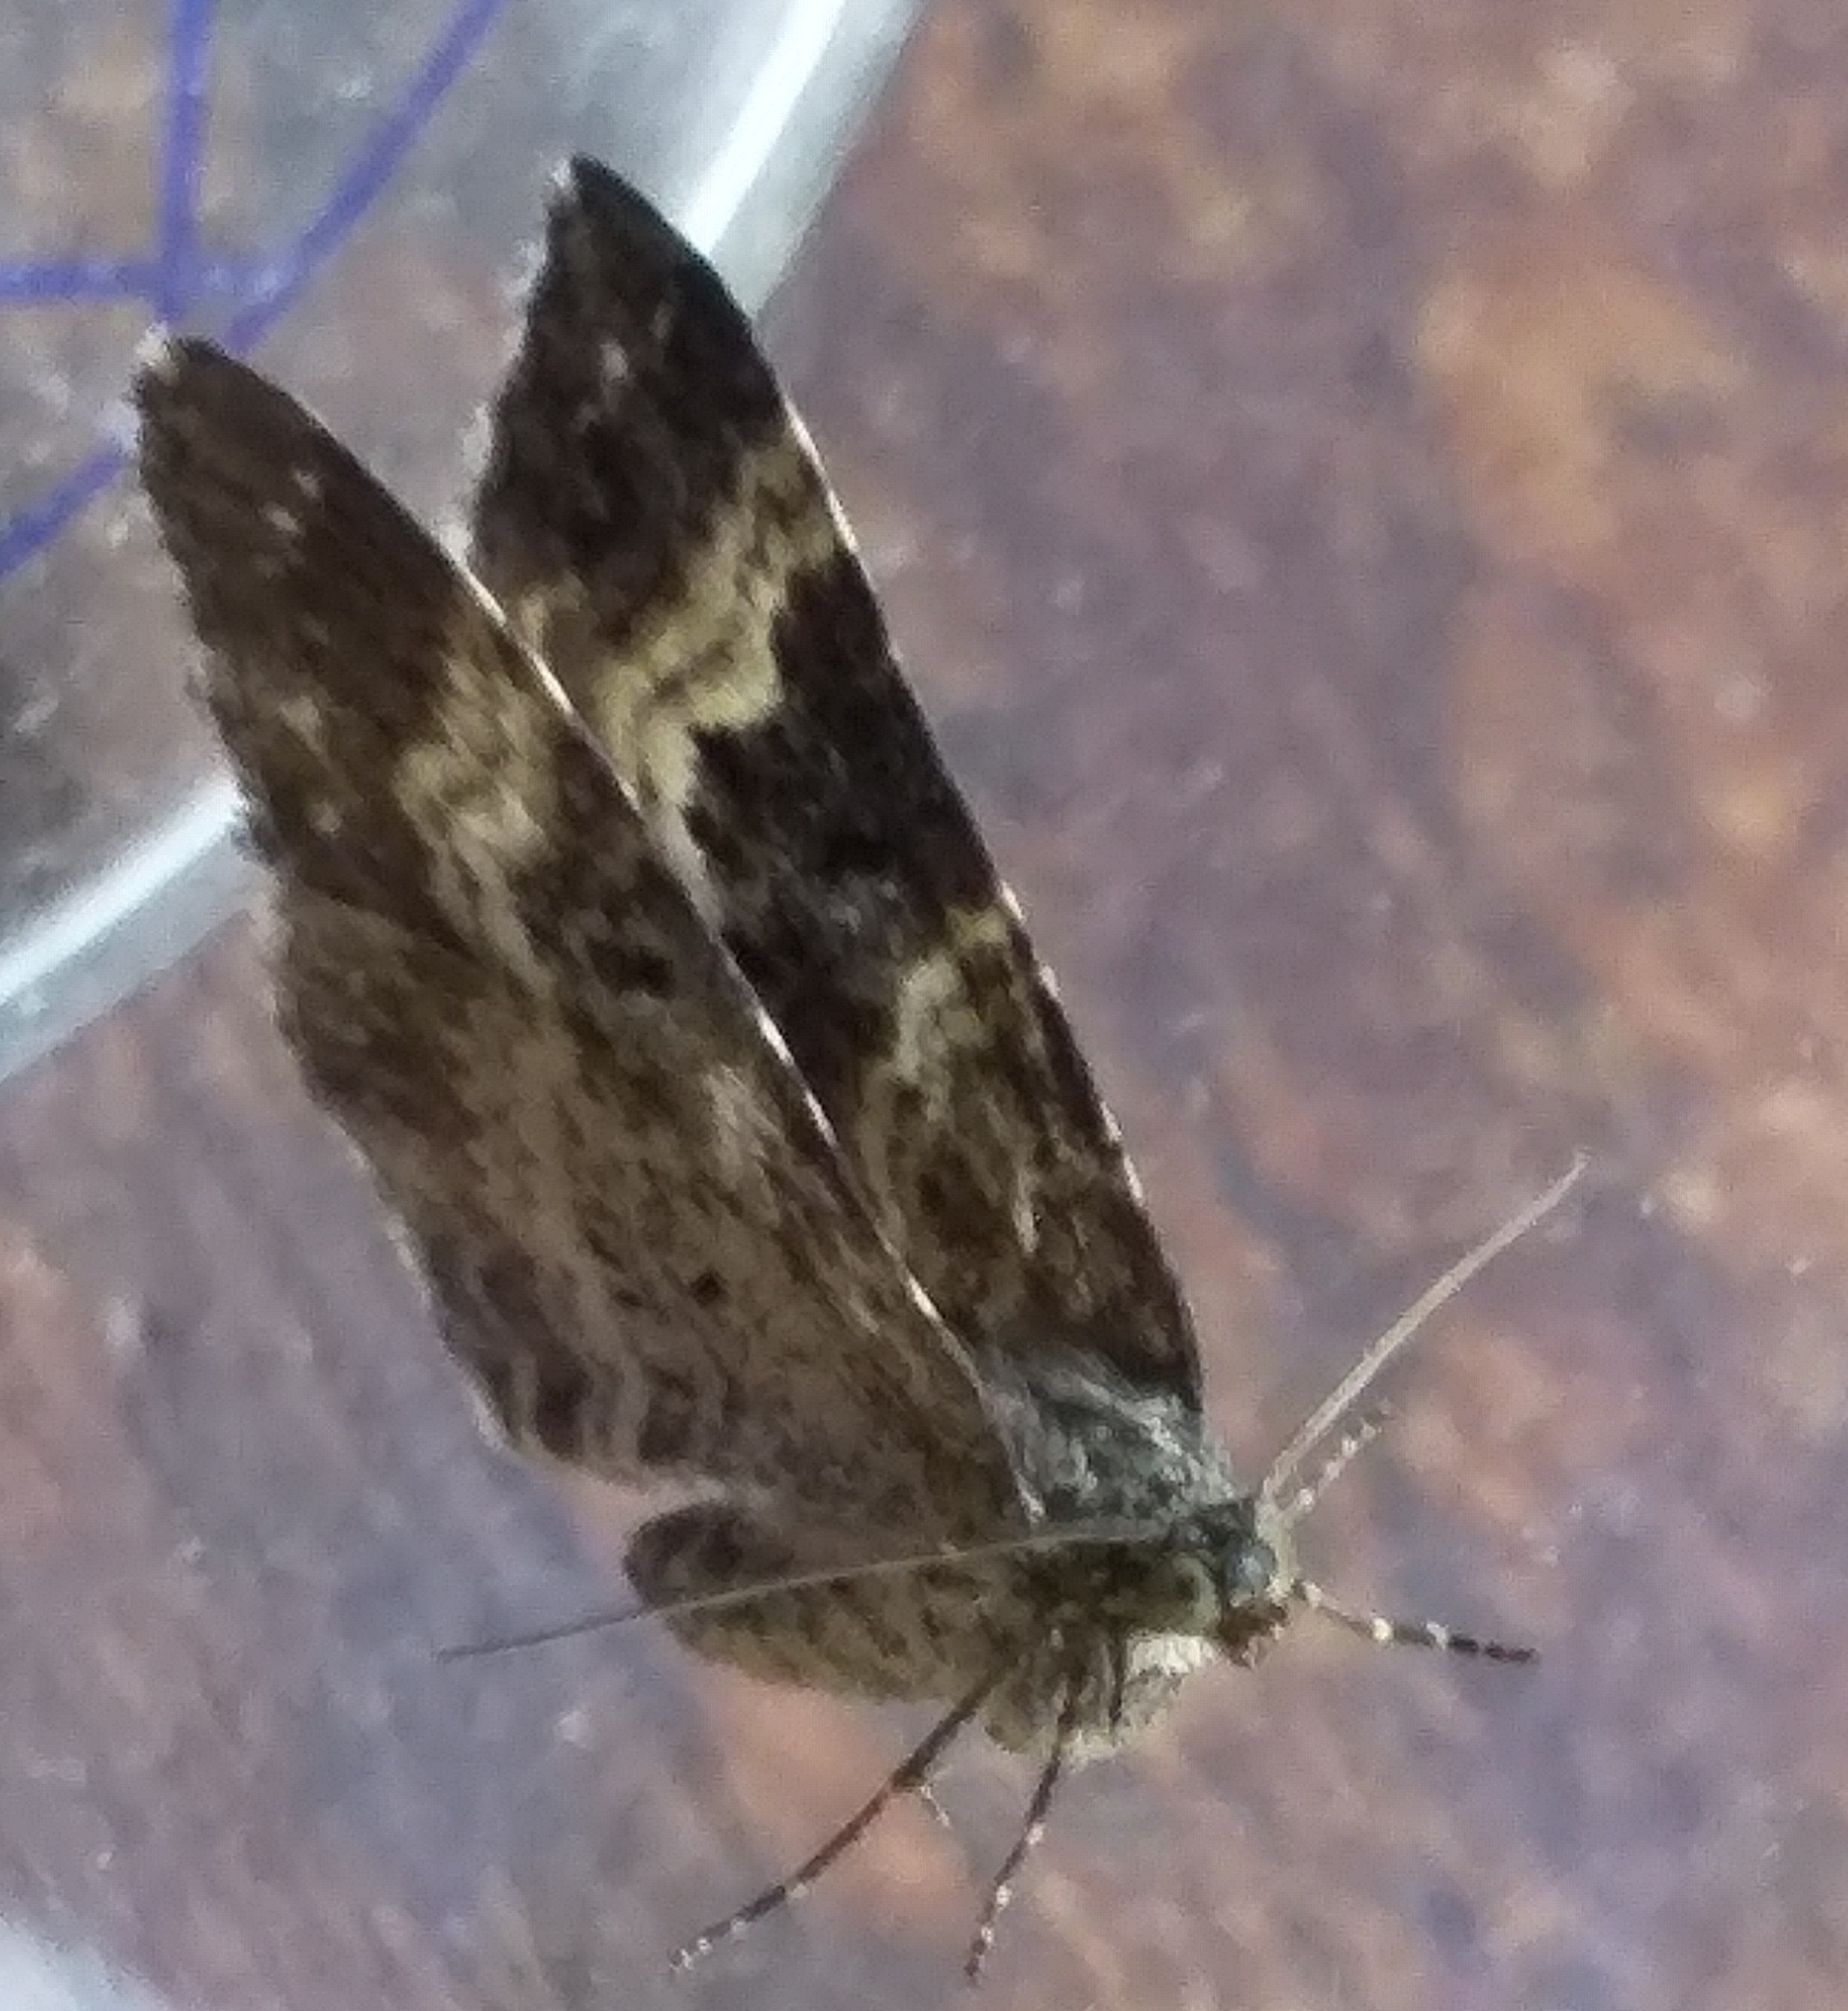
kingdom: Animalia
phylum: Arthropoda
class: Insecta
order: Lepidoptera
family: Geometridae
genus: Epirrhoe
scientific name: Epirrhoe alternata
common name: Common carpet
